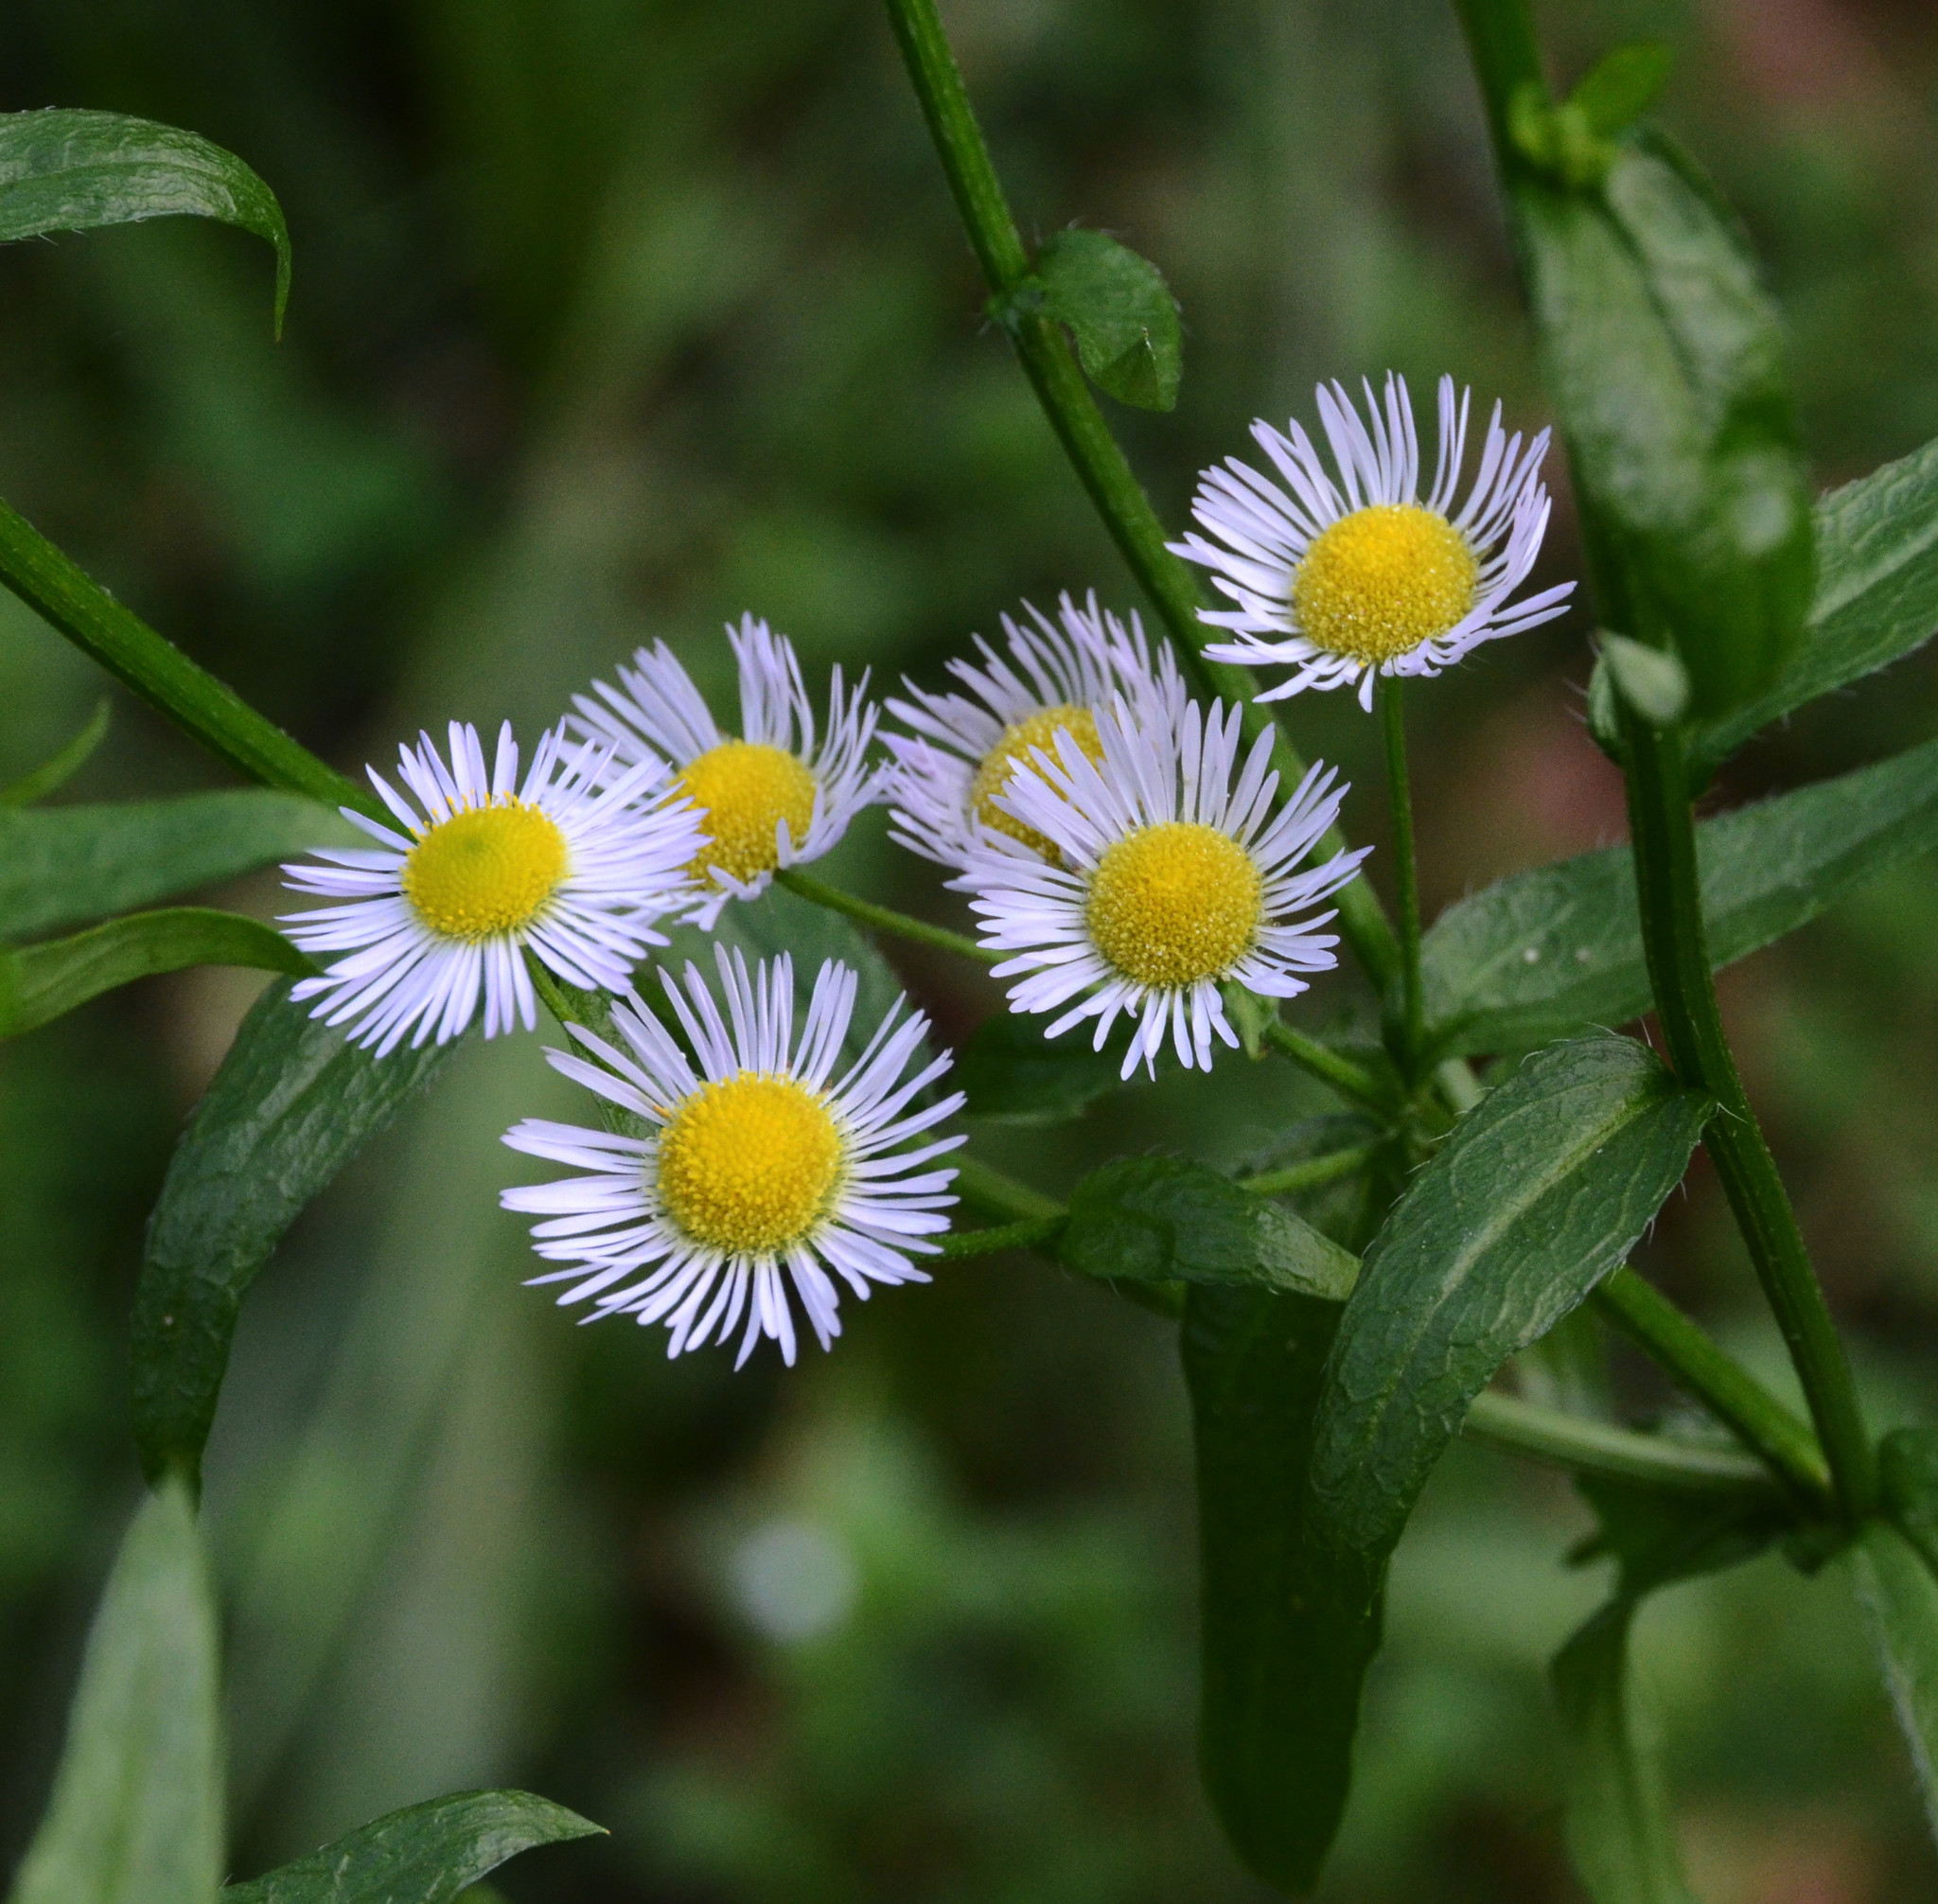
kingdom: Plantae
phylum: Tracheophyta
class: Magnoliopsida
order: Asterales
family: Asteraceae
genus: Erigeron
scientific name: Erigeron annuus
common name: Tall fleabane
